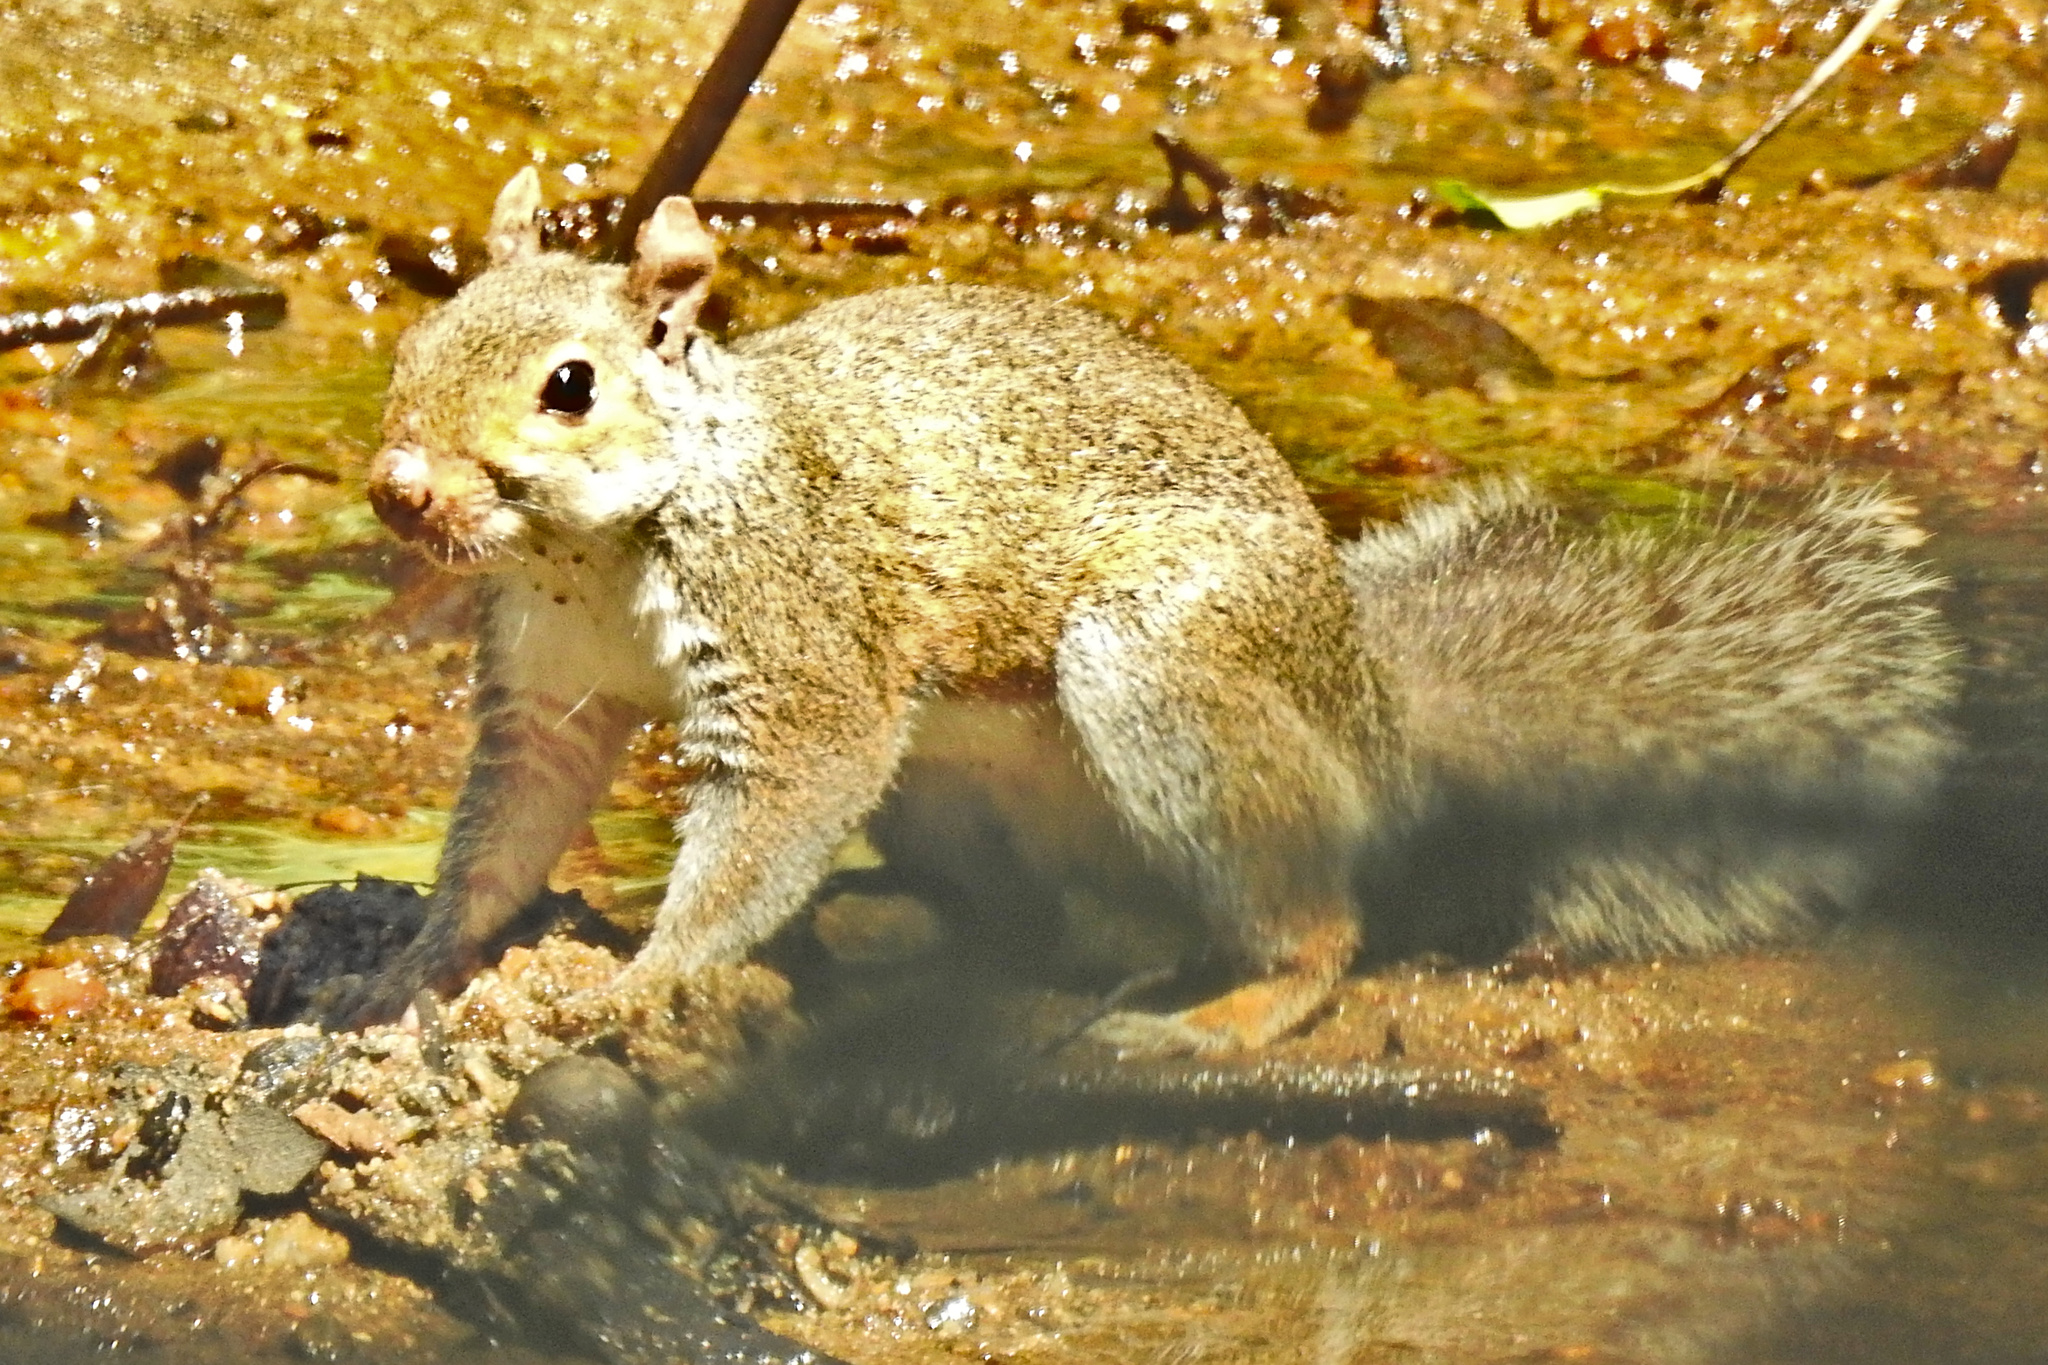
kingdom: Animalia
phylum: Chordata
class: Mammalia
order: Rodentia
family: Sciuridae
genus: Sciurus
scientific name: Sciurus carolinensis
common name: Eastern gray squirrel
